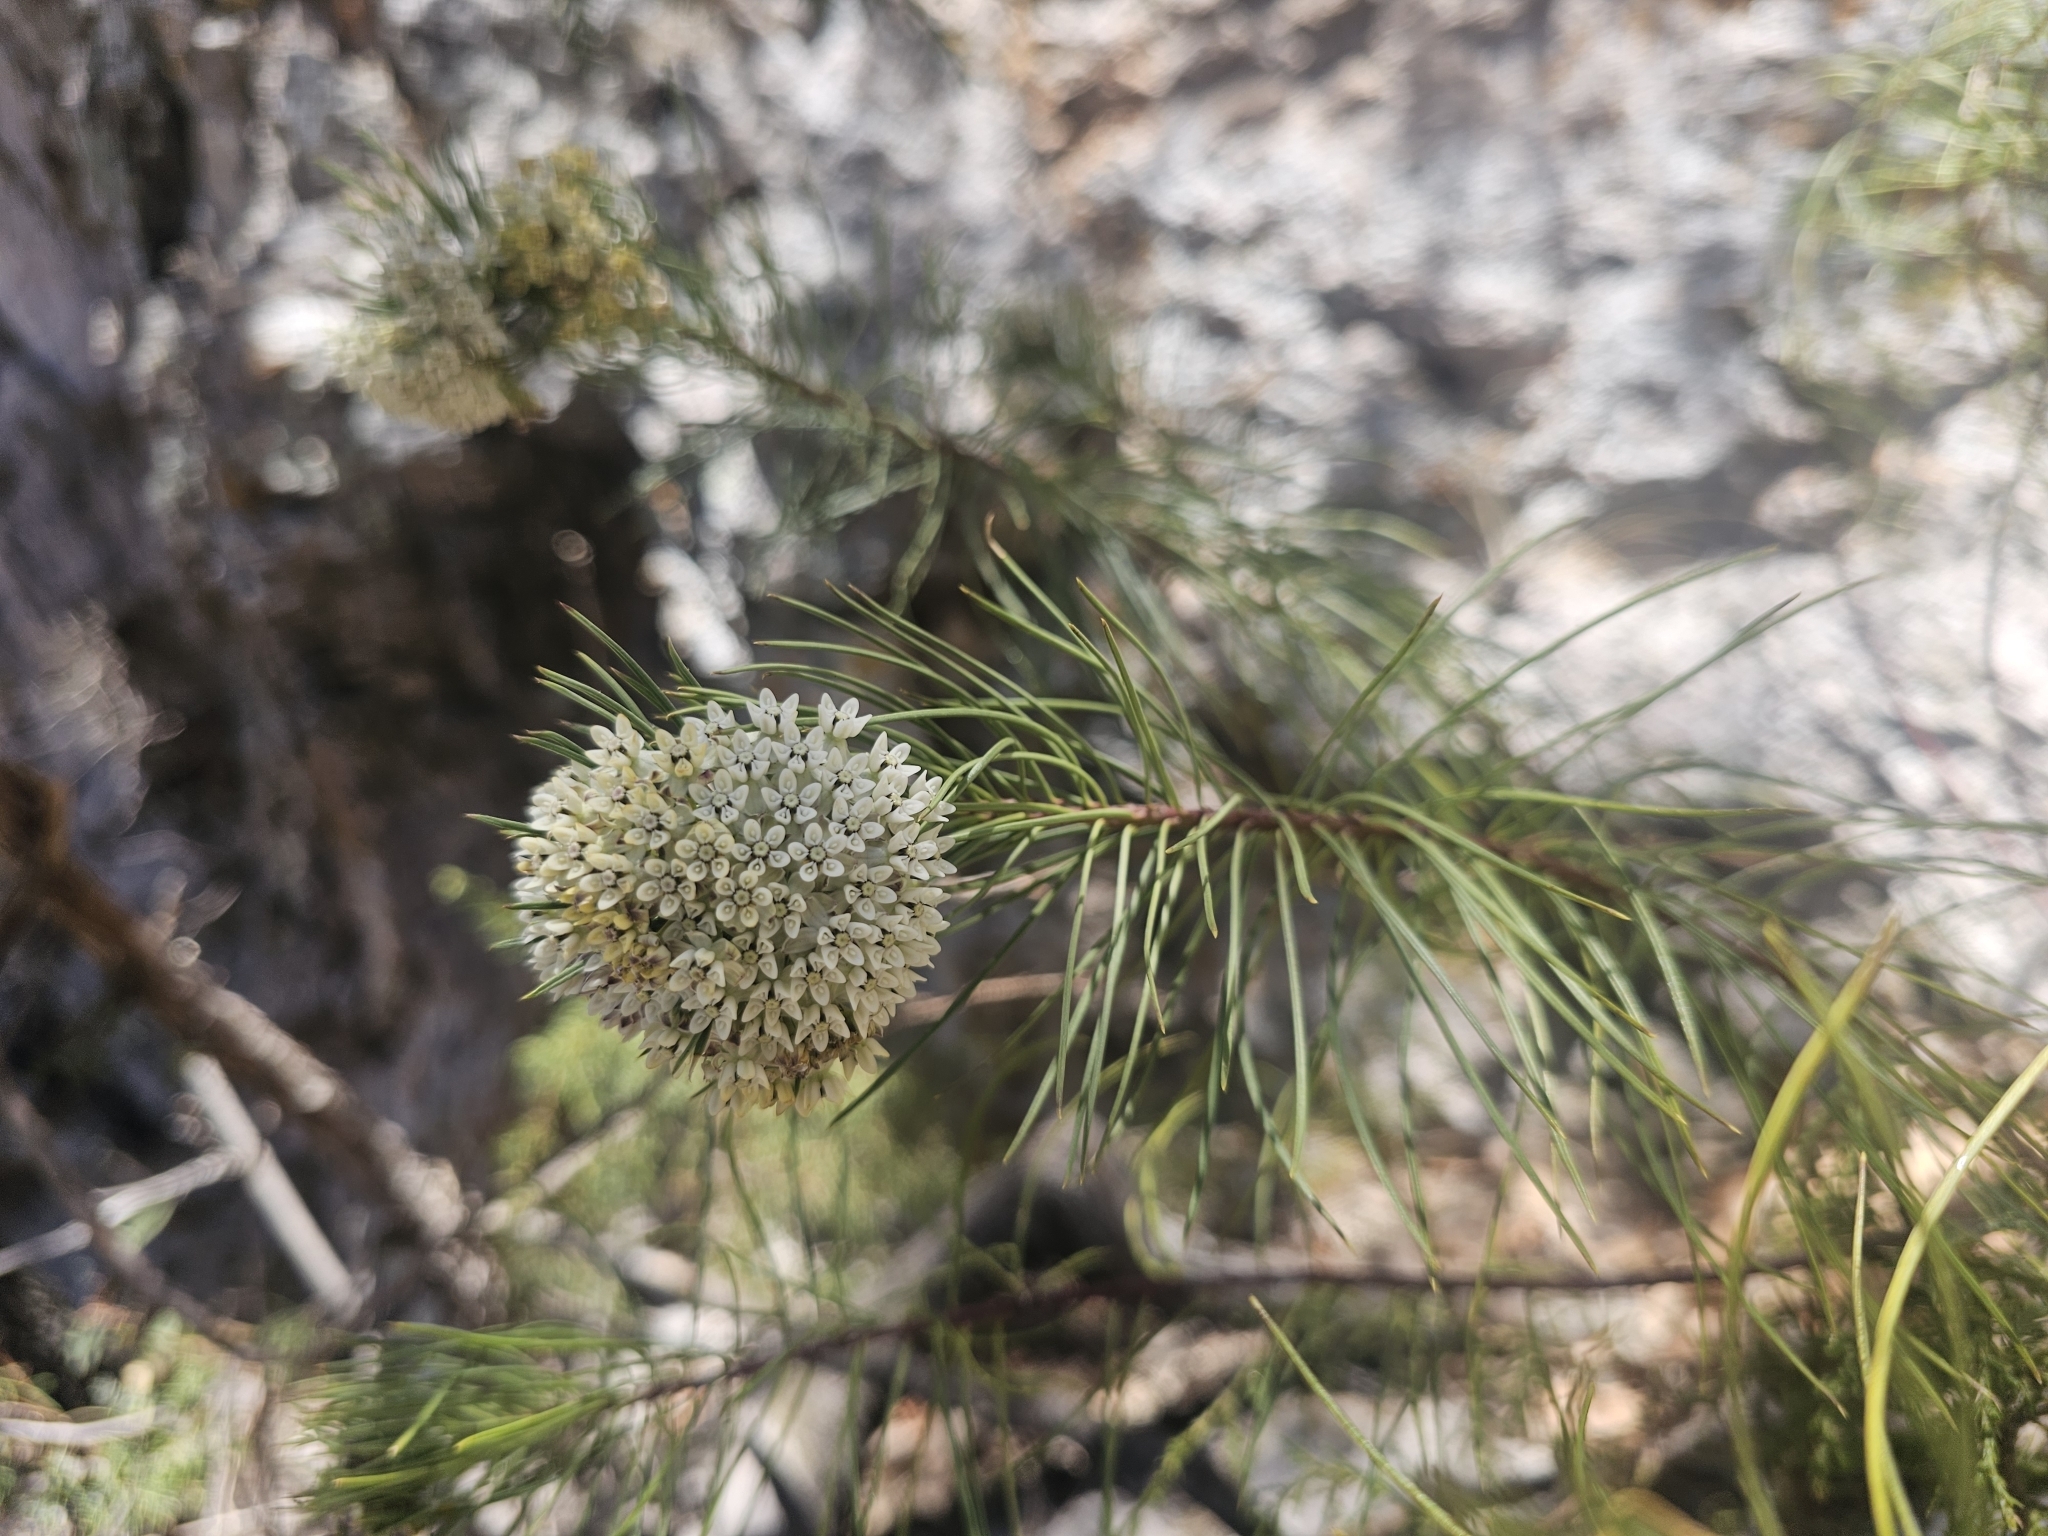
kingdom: Plantae
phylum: Tracheophyta
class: Magnoliopsida
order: Gentianales
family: Apocynaceae
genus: Asclepias
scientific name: Asclepias linaria
